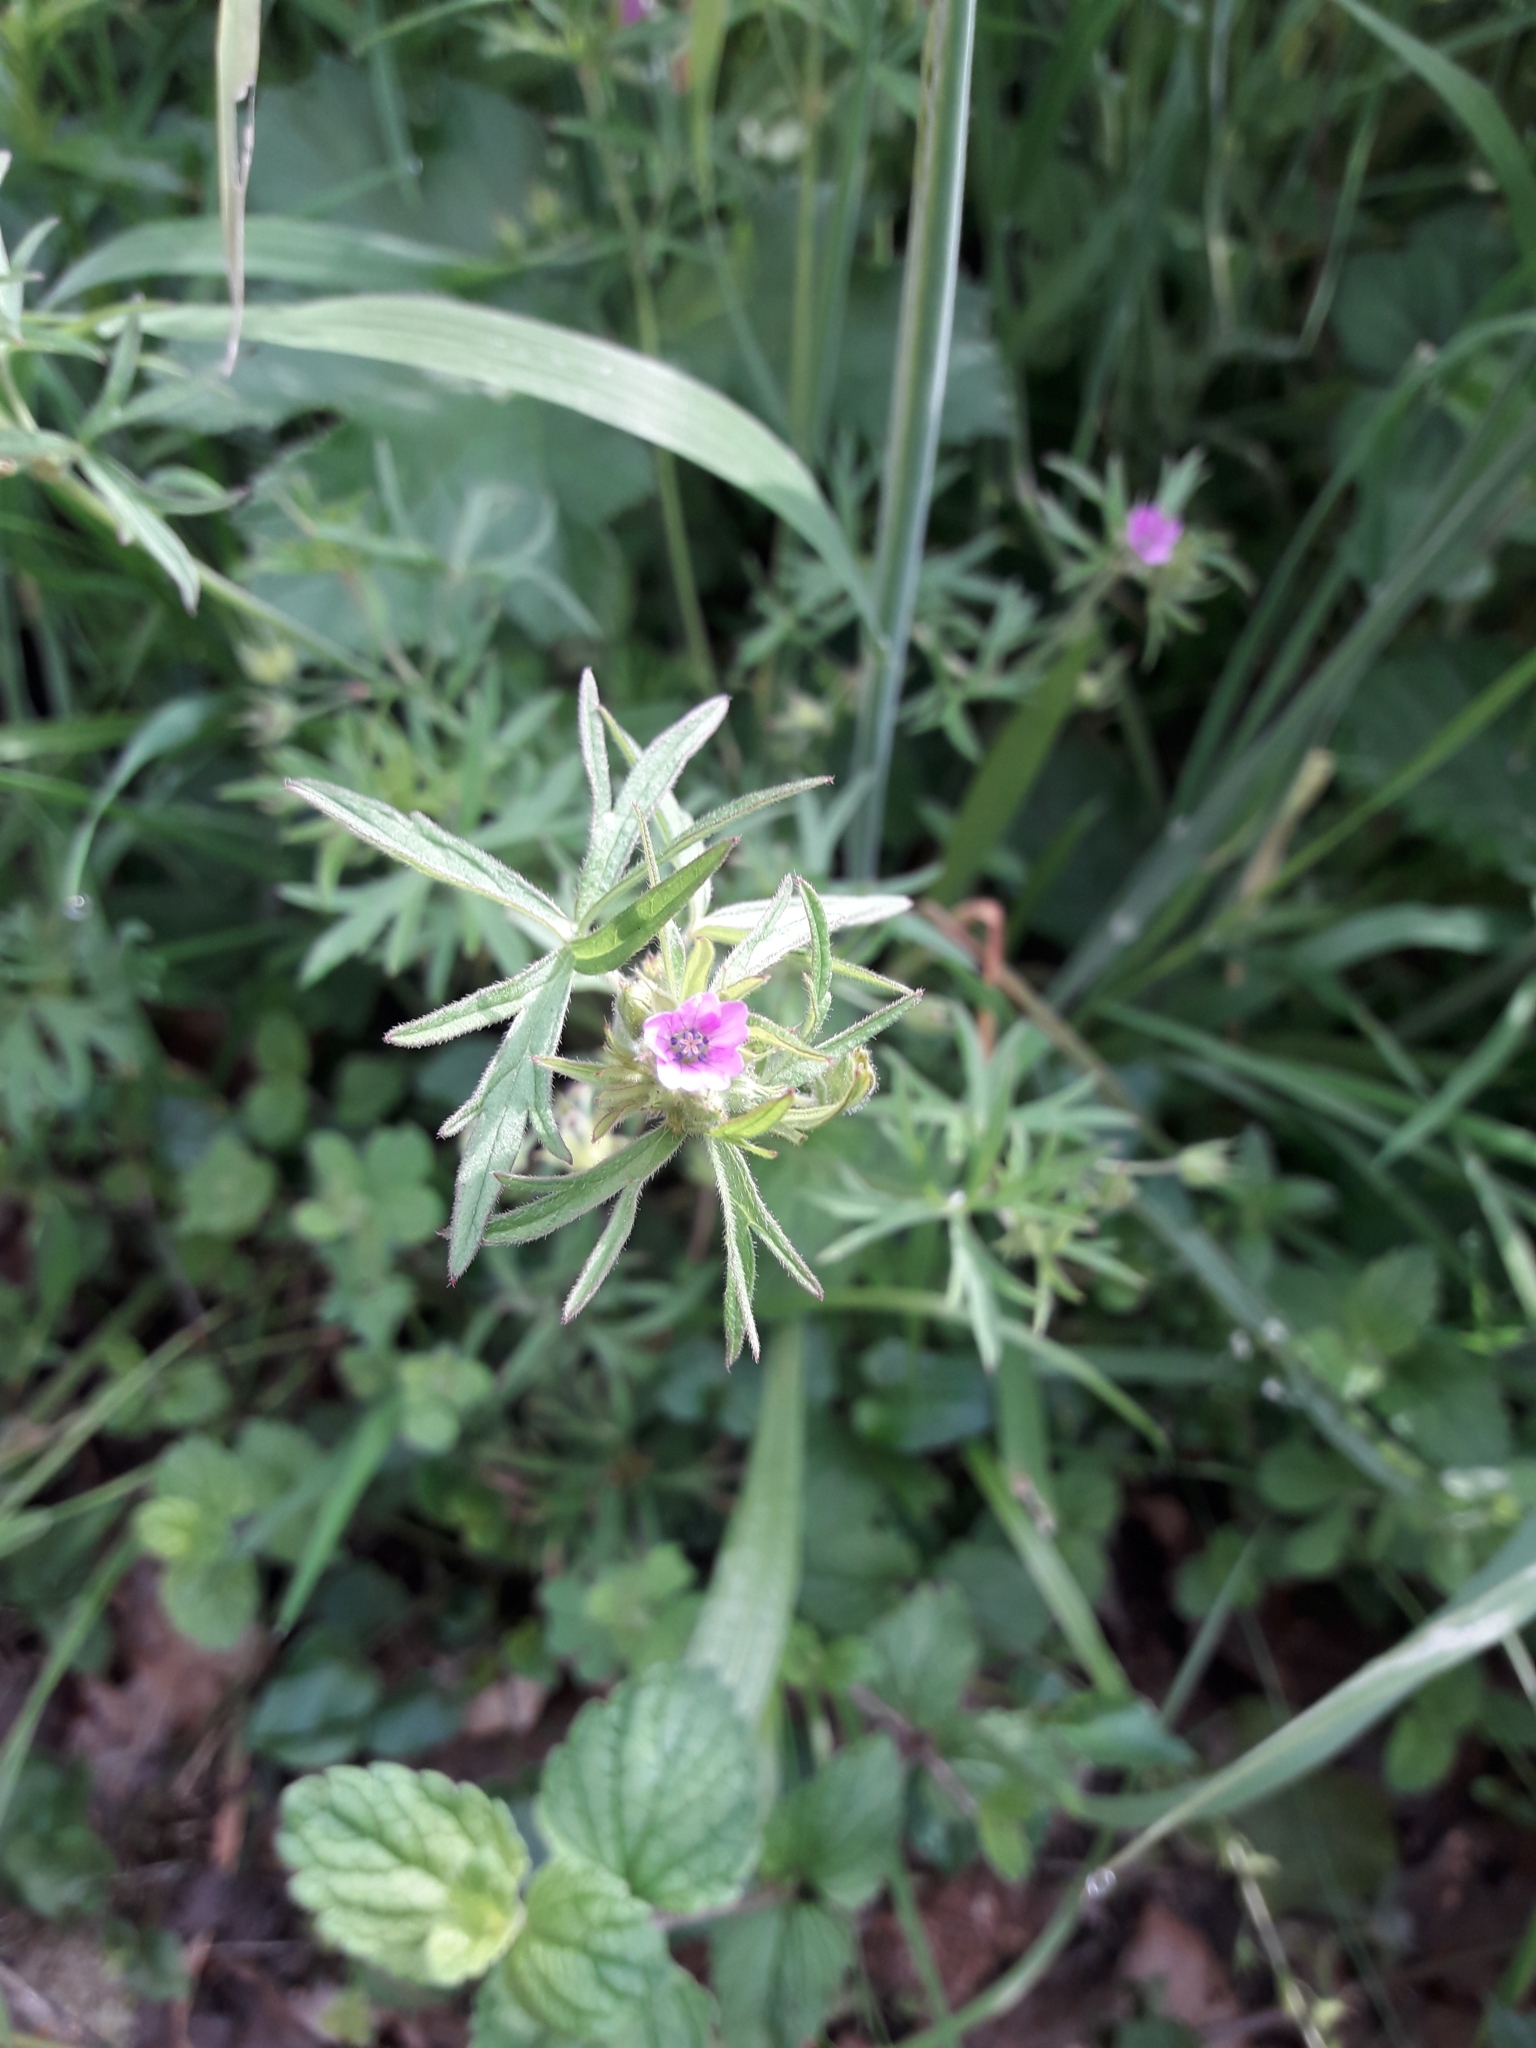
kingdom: Plantae
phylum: Tracheophyta
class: Magnoliopsida
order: Geraniales
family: Geraniaceae
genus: Geranium
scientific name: Geranium dissectum
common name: Cut-leaved crane's-bill
